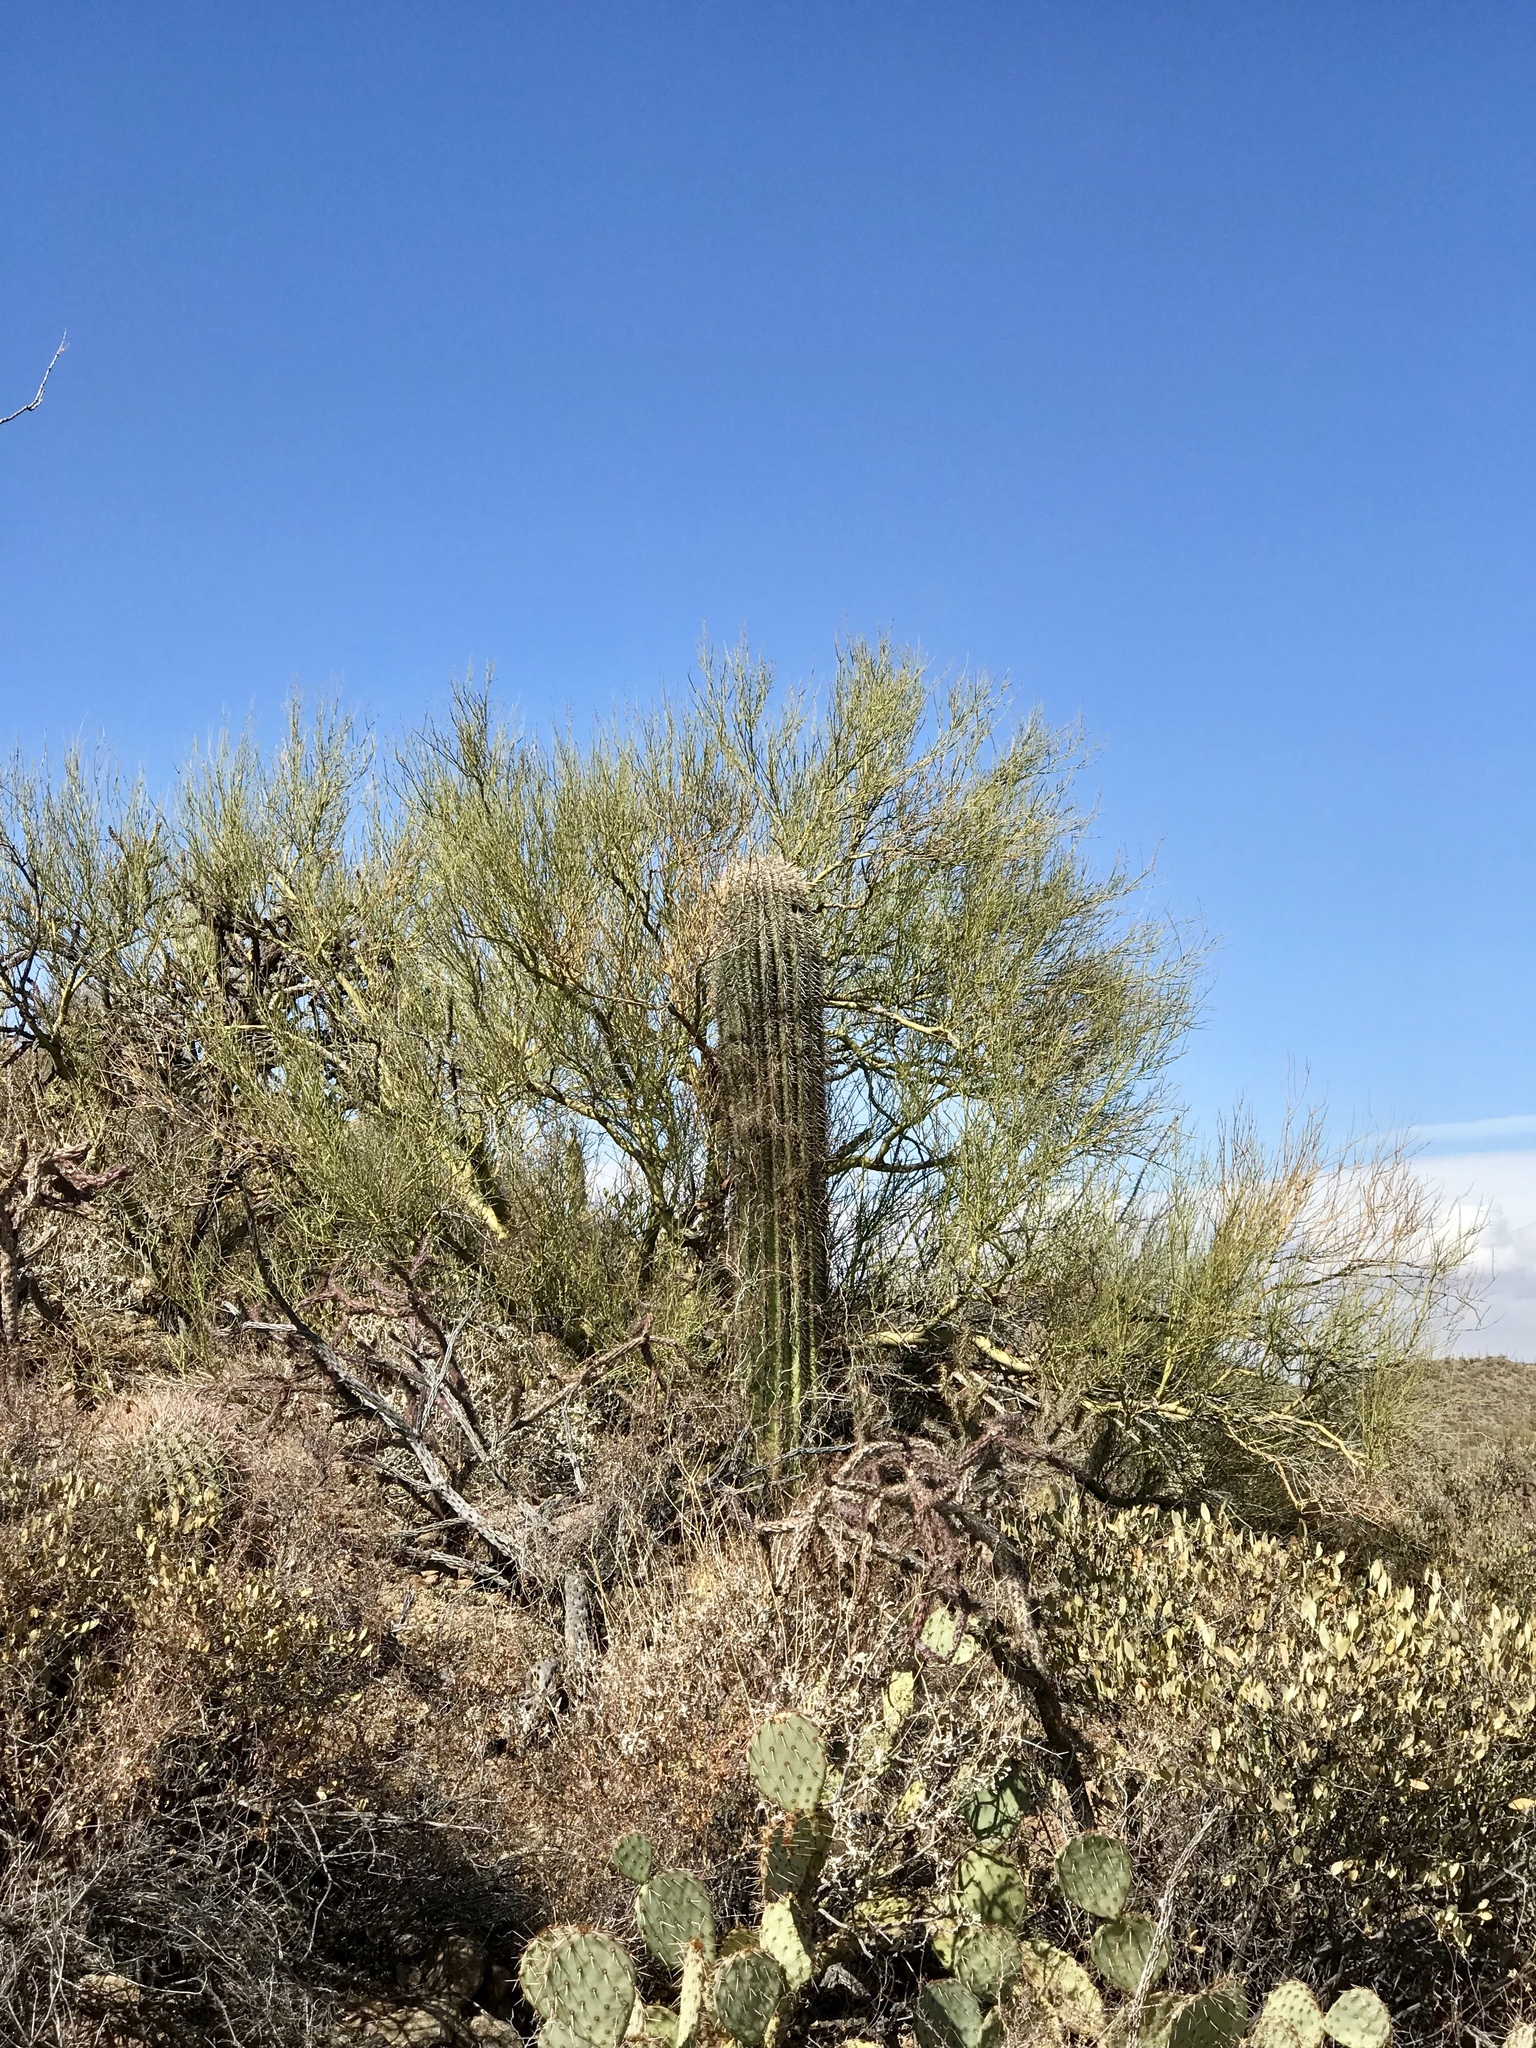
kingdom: Plantae
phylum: Tracheophyta
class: Magnoliopsida
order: Fabales
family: Fabaceae
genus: Parkinsonia
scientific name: Parkinsonia microphylla
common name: Yellow paloverde
